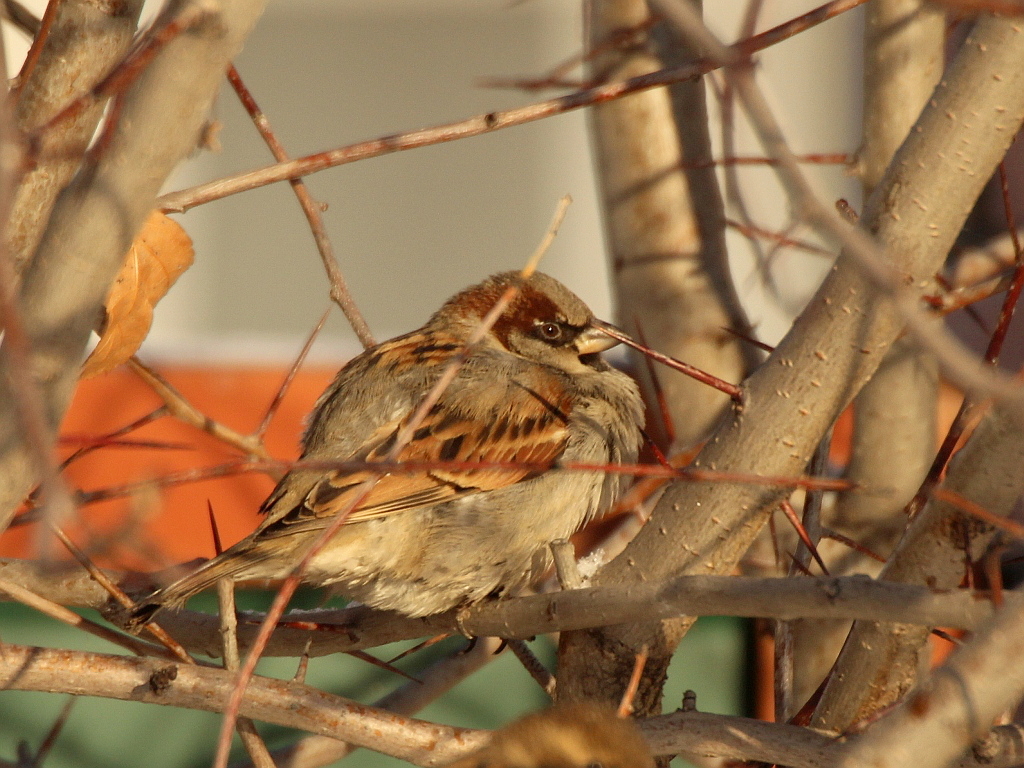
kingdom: Animalia
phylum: Chordata
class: Aves
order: Passeriformes
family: Passeridae
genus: Passer
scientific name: Passer domesticus
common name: House sparrow
